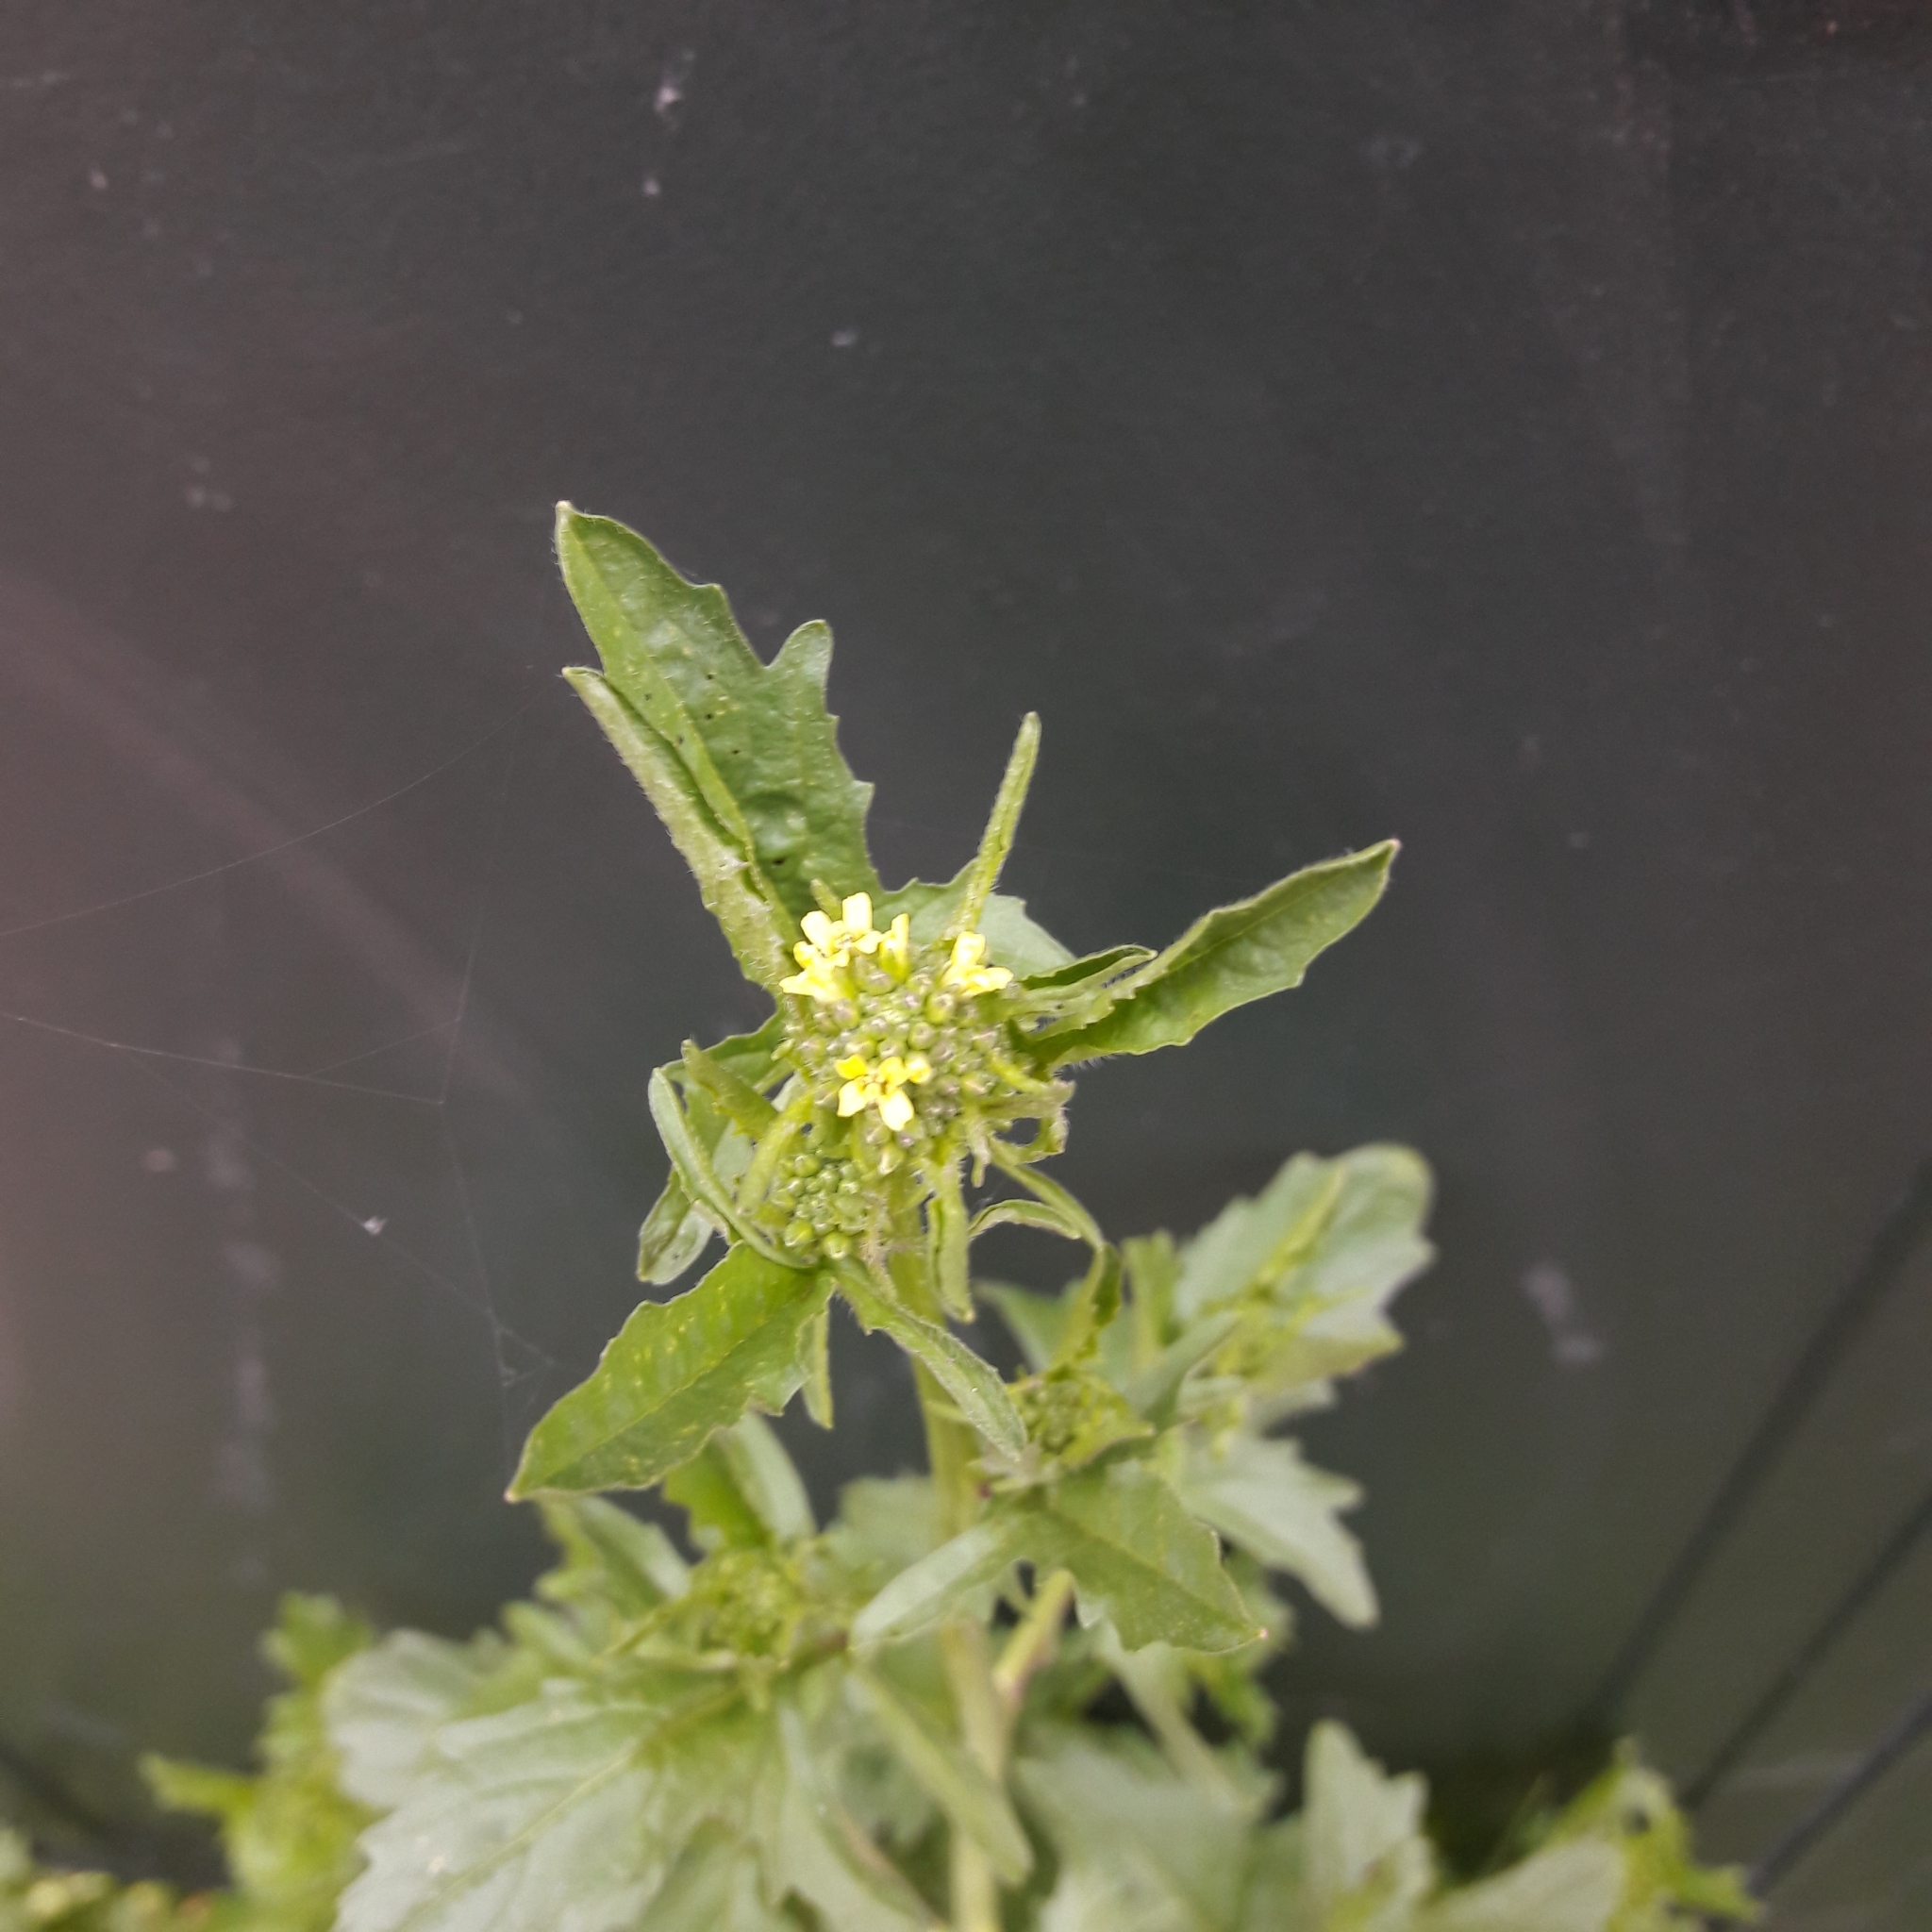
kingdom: Plantae
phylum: Tracheophyta
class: Magnoliopsida
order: Brassicales
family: Brassicaceae
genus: Barbarea
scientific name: Barbarea vulgaris
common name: Cressy-greens
